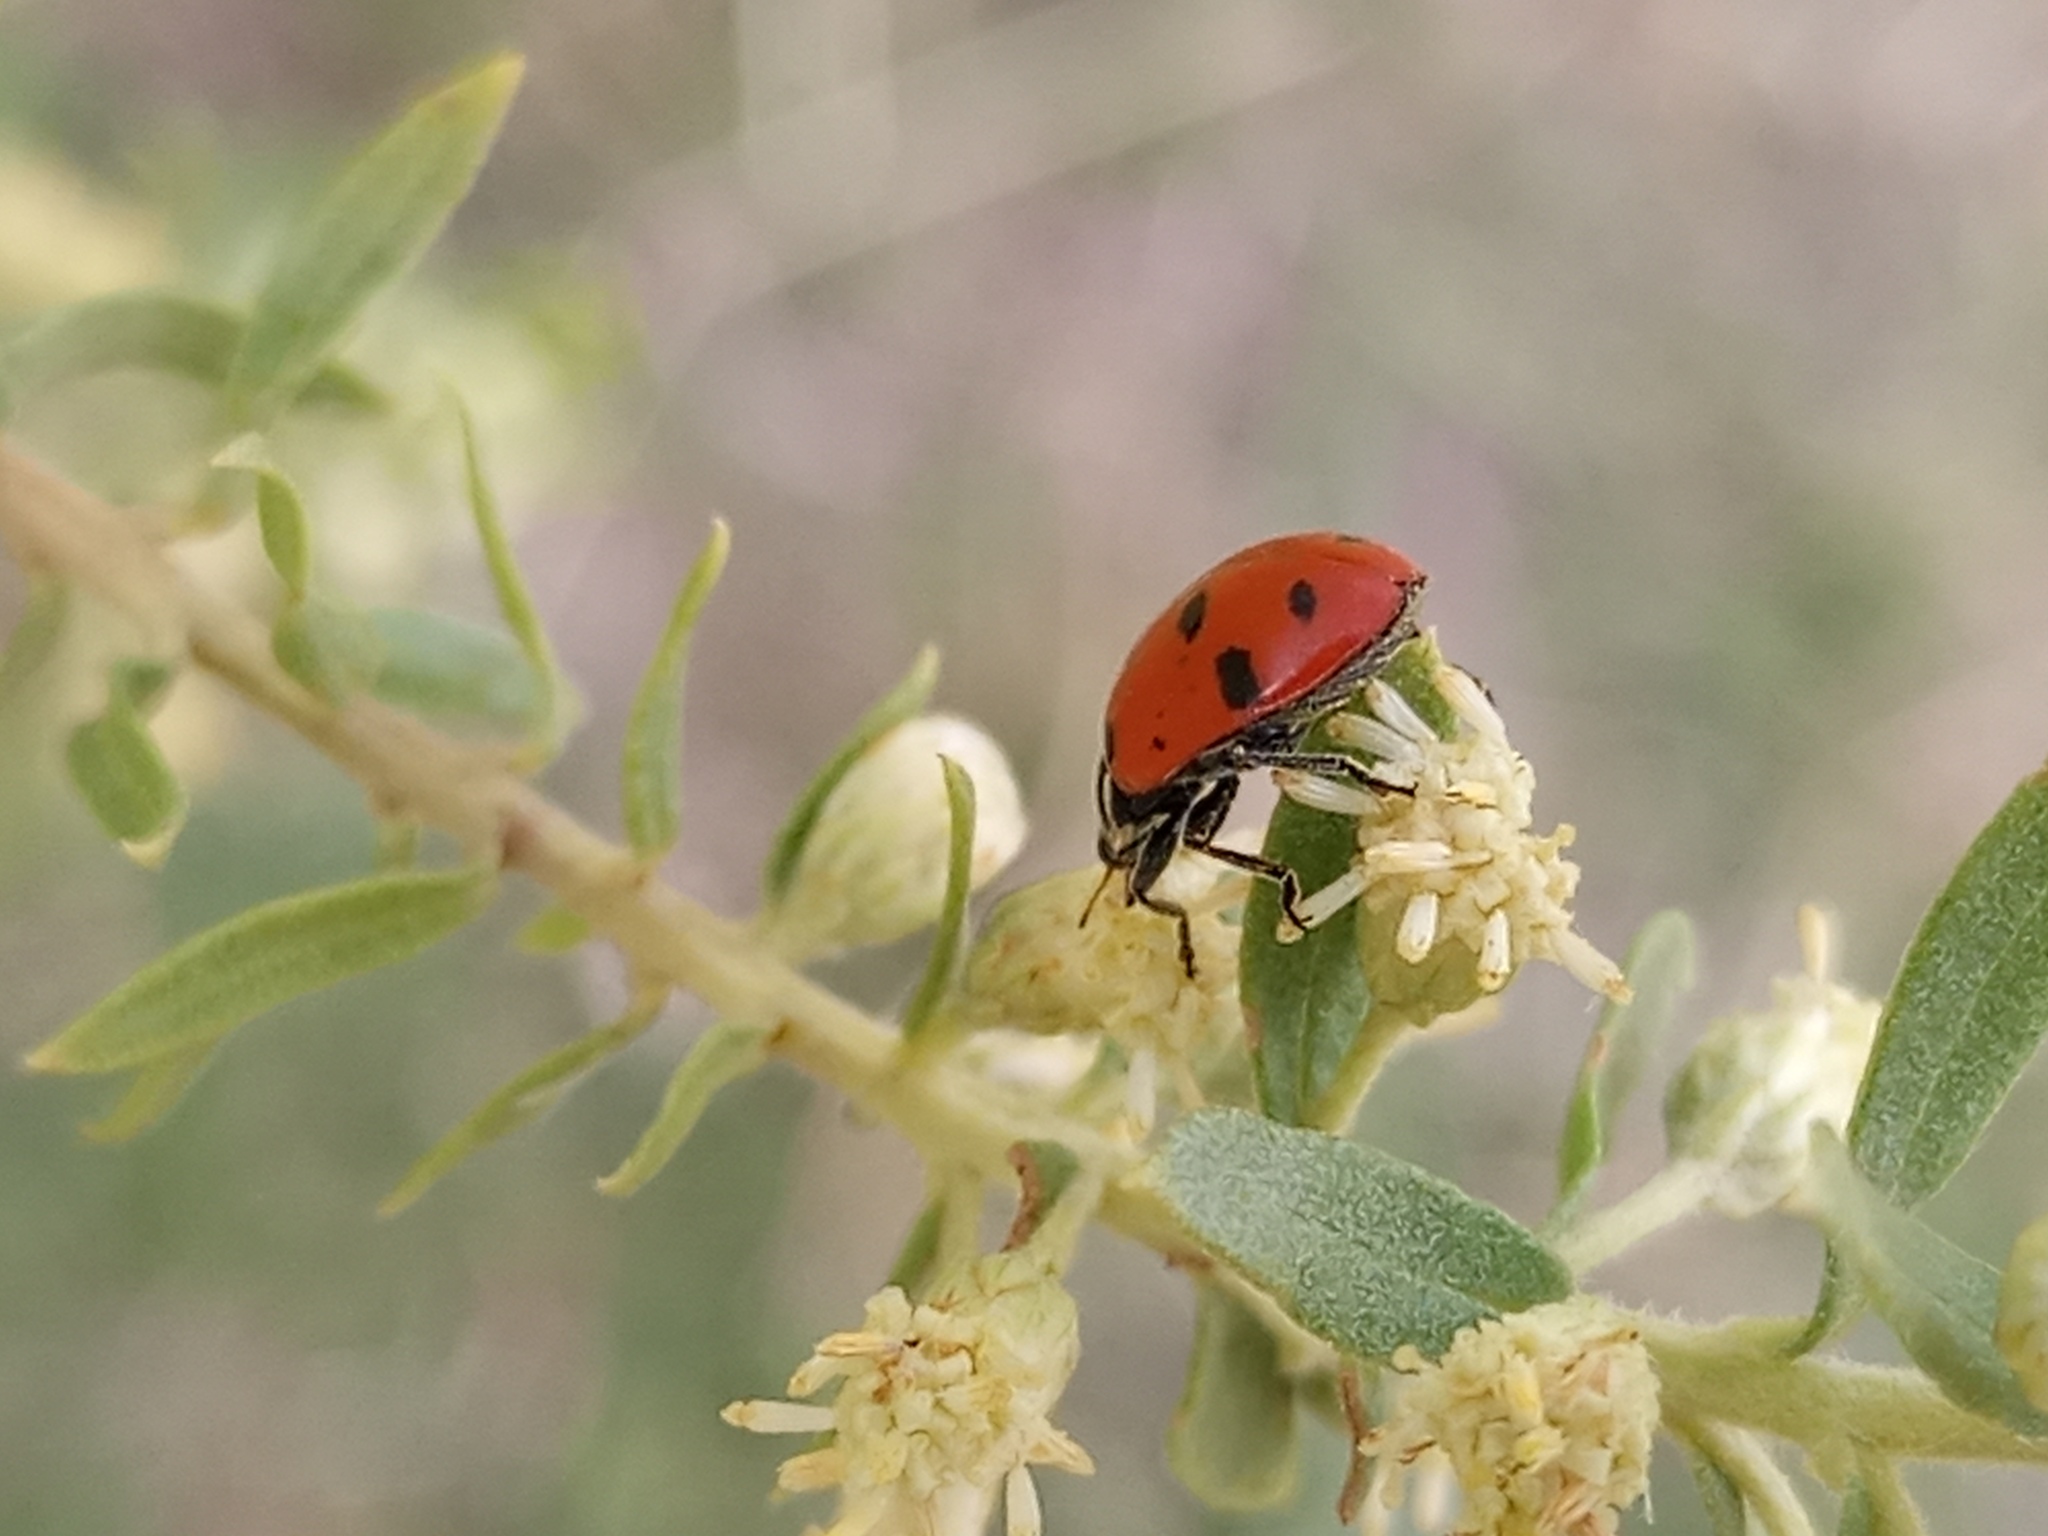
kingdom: Animalia
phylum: Arthropoda
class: Insecta
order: Coleoptera
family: Coccinellidae
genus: Hippodamia
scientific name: Hippodamia convergens
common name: Convergent lady beetle
